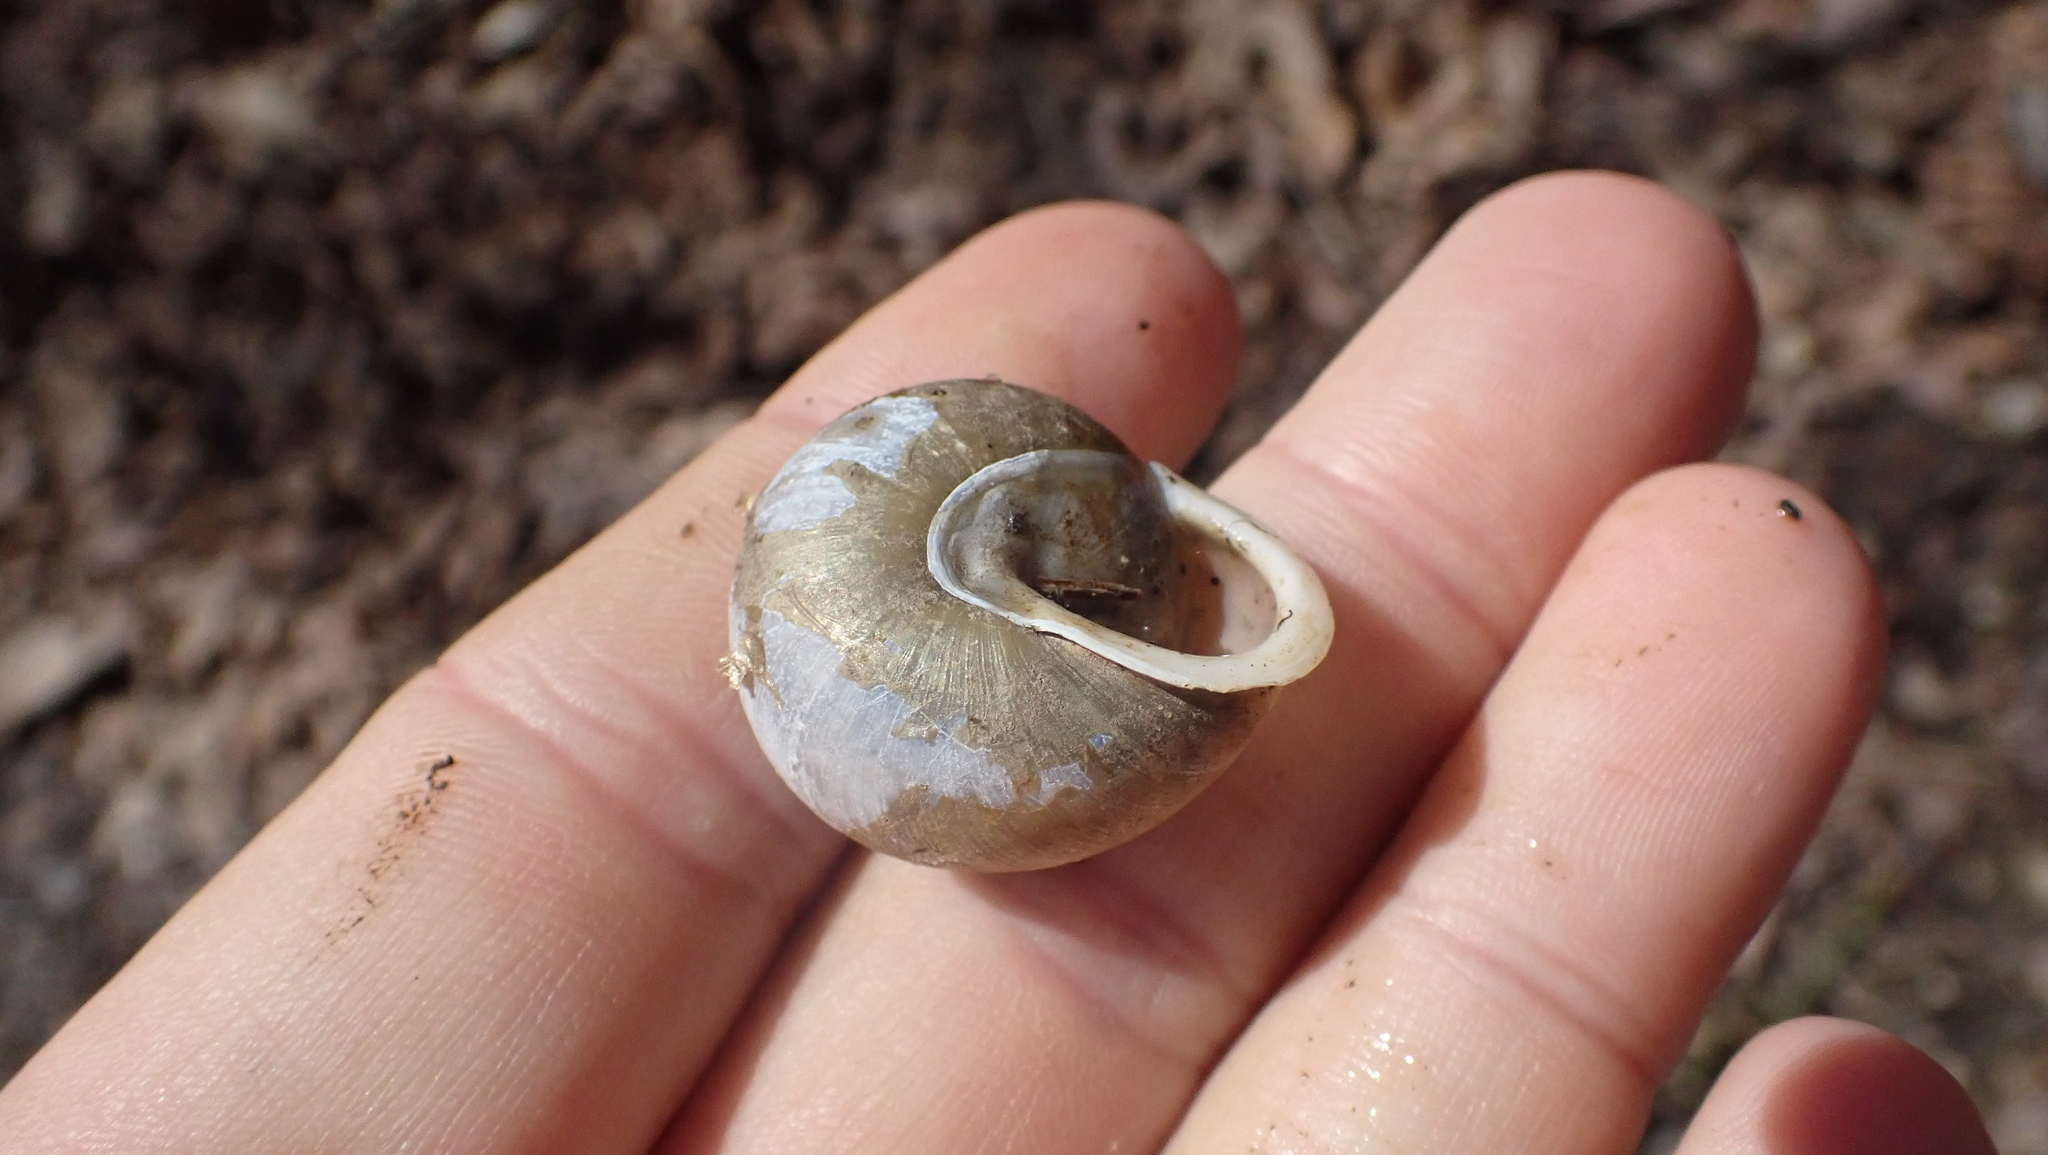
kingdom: Animalia
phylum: Mollusca
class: Gastropoda
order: Stylommatophora
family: Polygyridae
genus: Neohelix
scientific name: Neohelix albolabris
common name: Eastern whitelip
